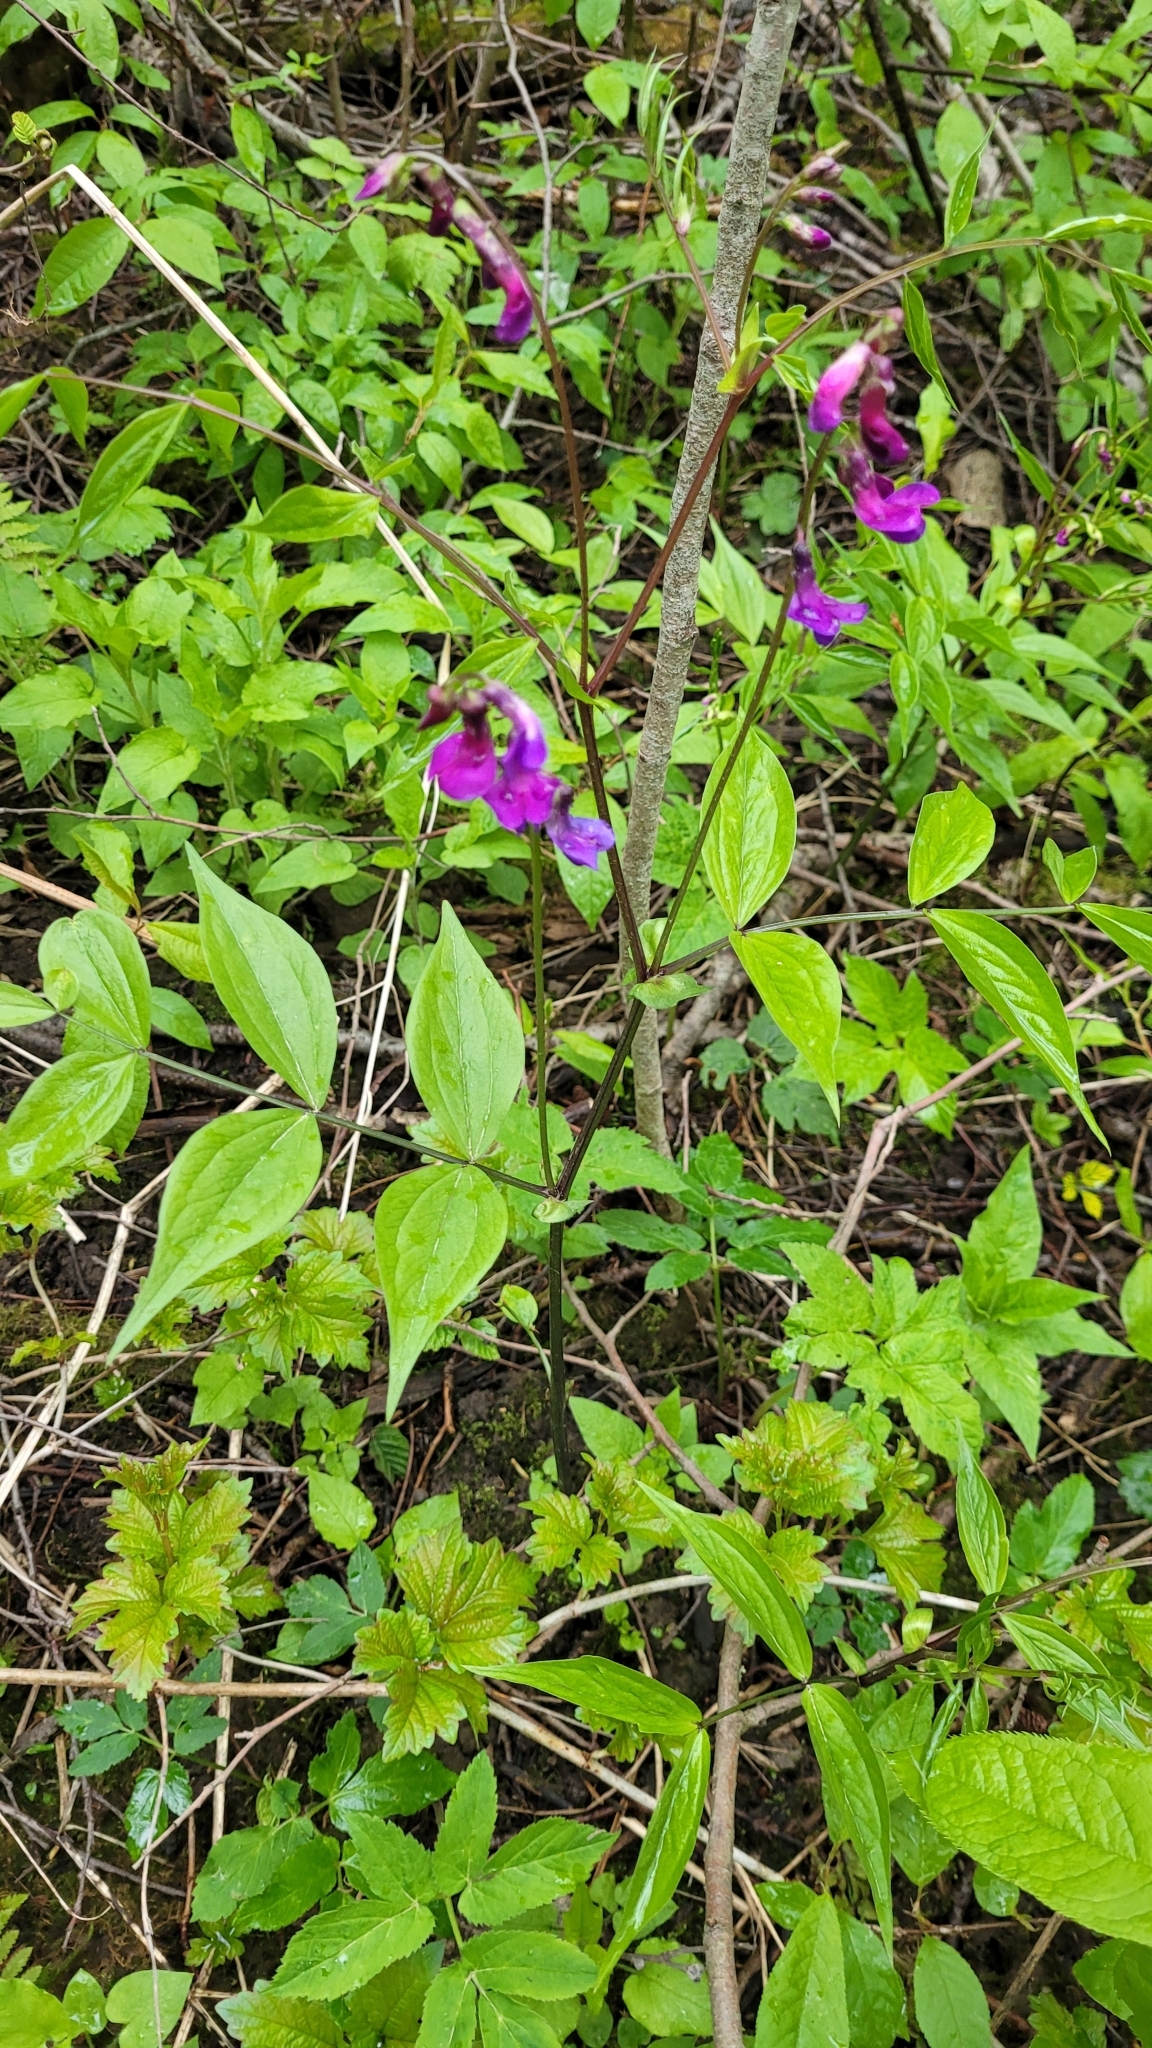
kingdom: Plantae
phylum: Tracheophyta
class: Magnoliopsida
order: Fabales
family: Fabaceae
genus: Lathyrus
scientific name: Lathyrus vernus
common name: Spring pea
